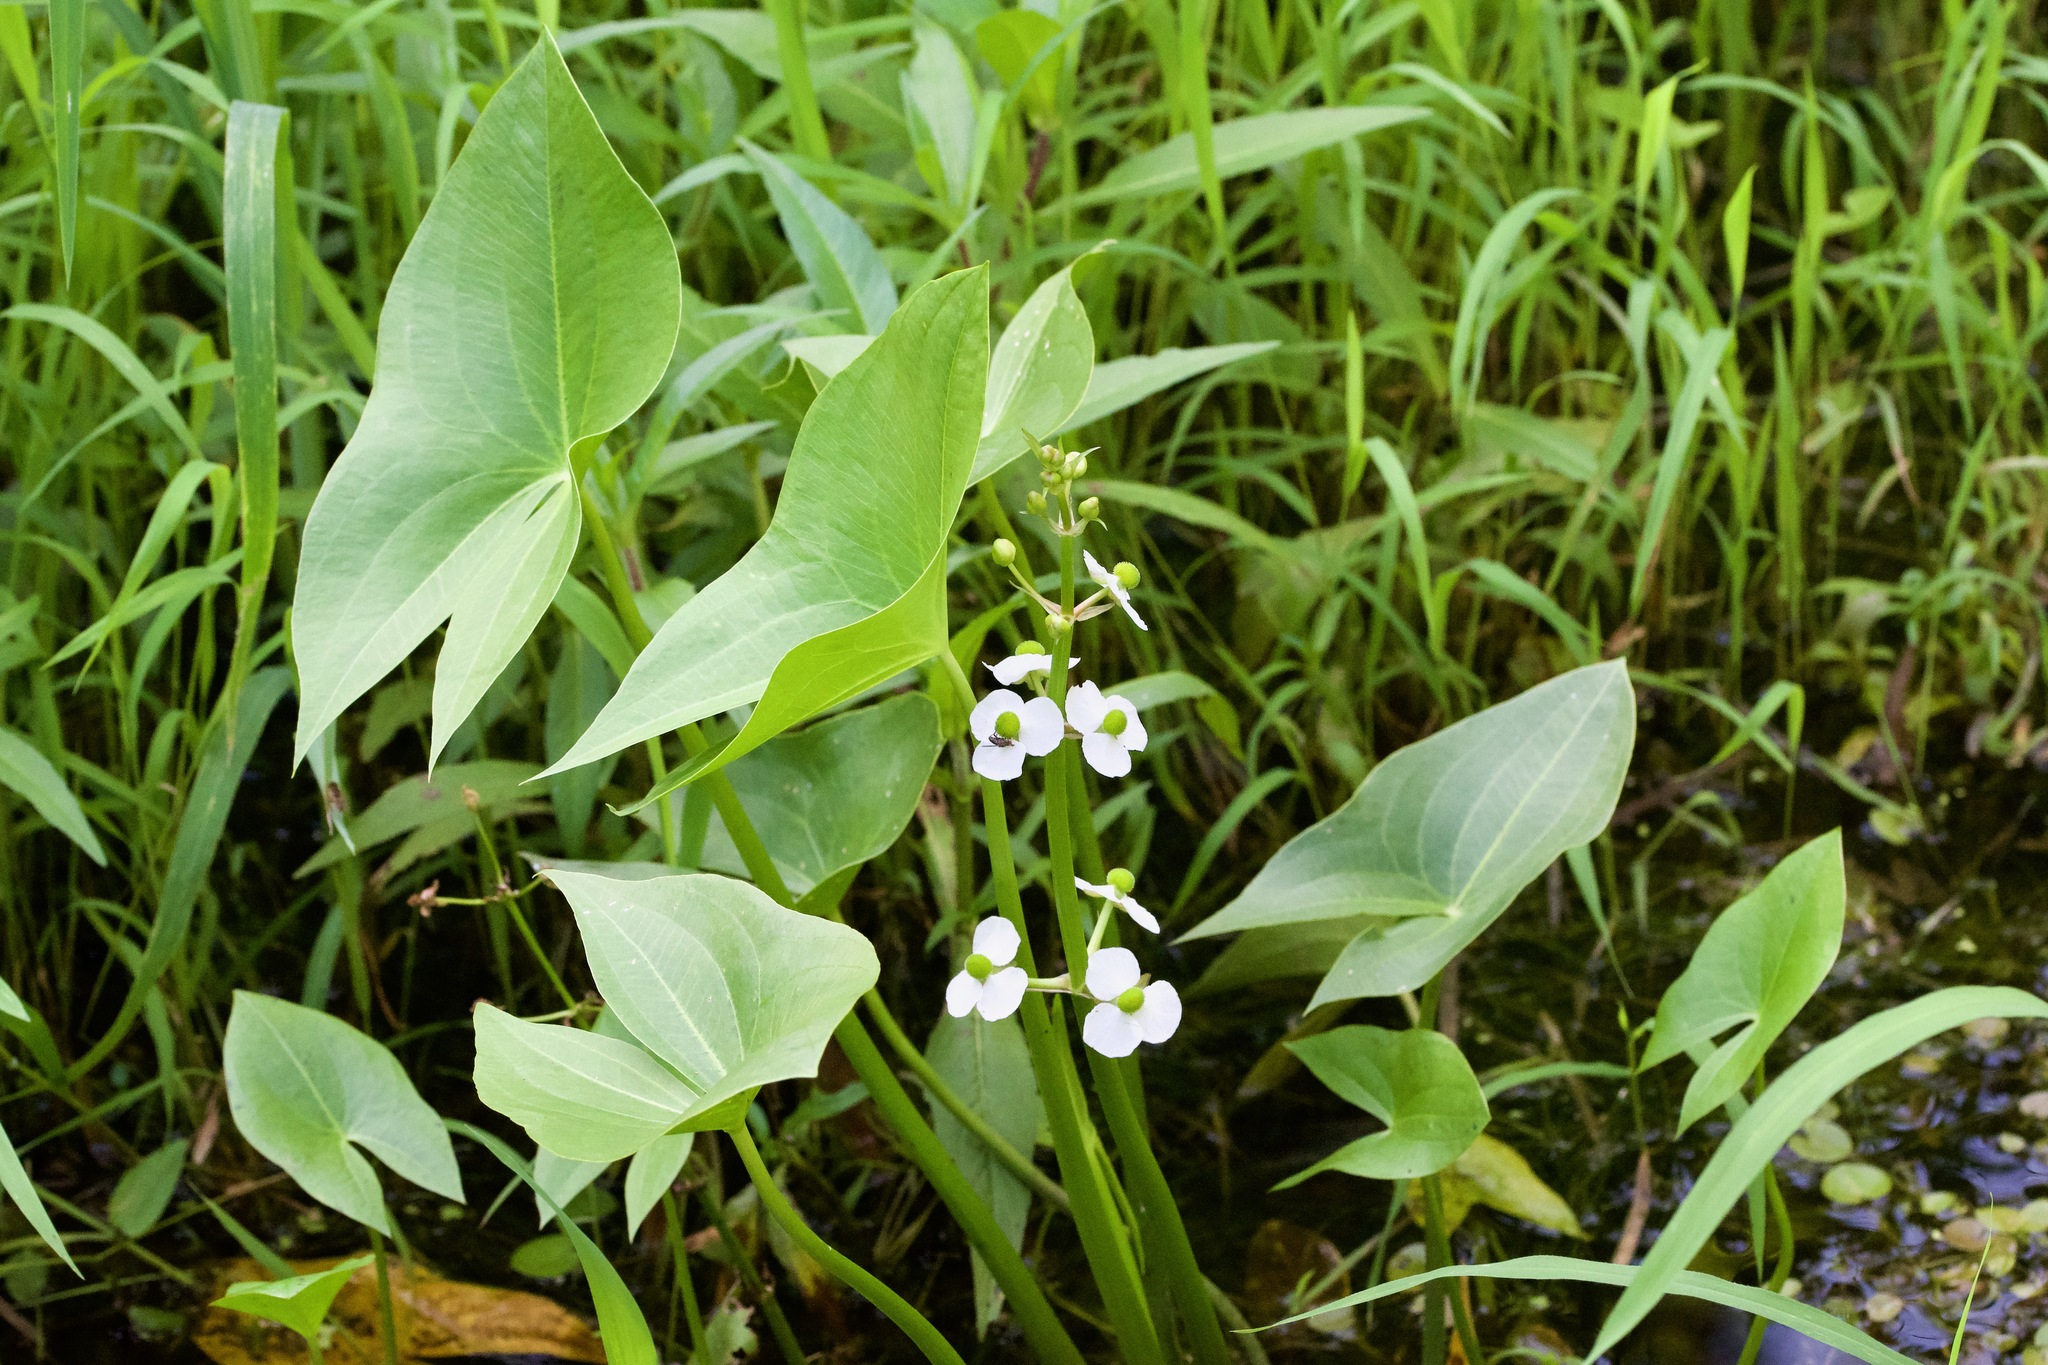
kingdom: Plantae
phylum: Tracheophyta
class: Liliopsida
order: Alismatales
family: Alismataceae
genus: Sagittaria
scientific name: Sagittaria latifolia
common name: Duck-potato
